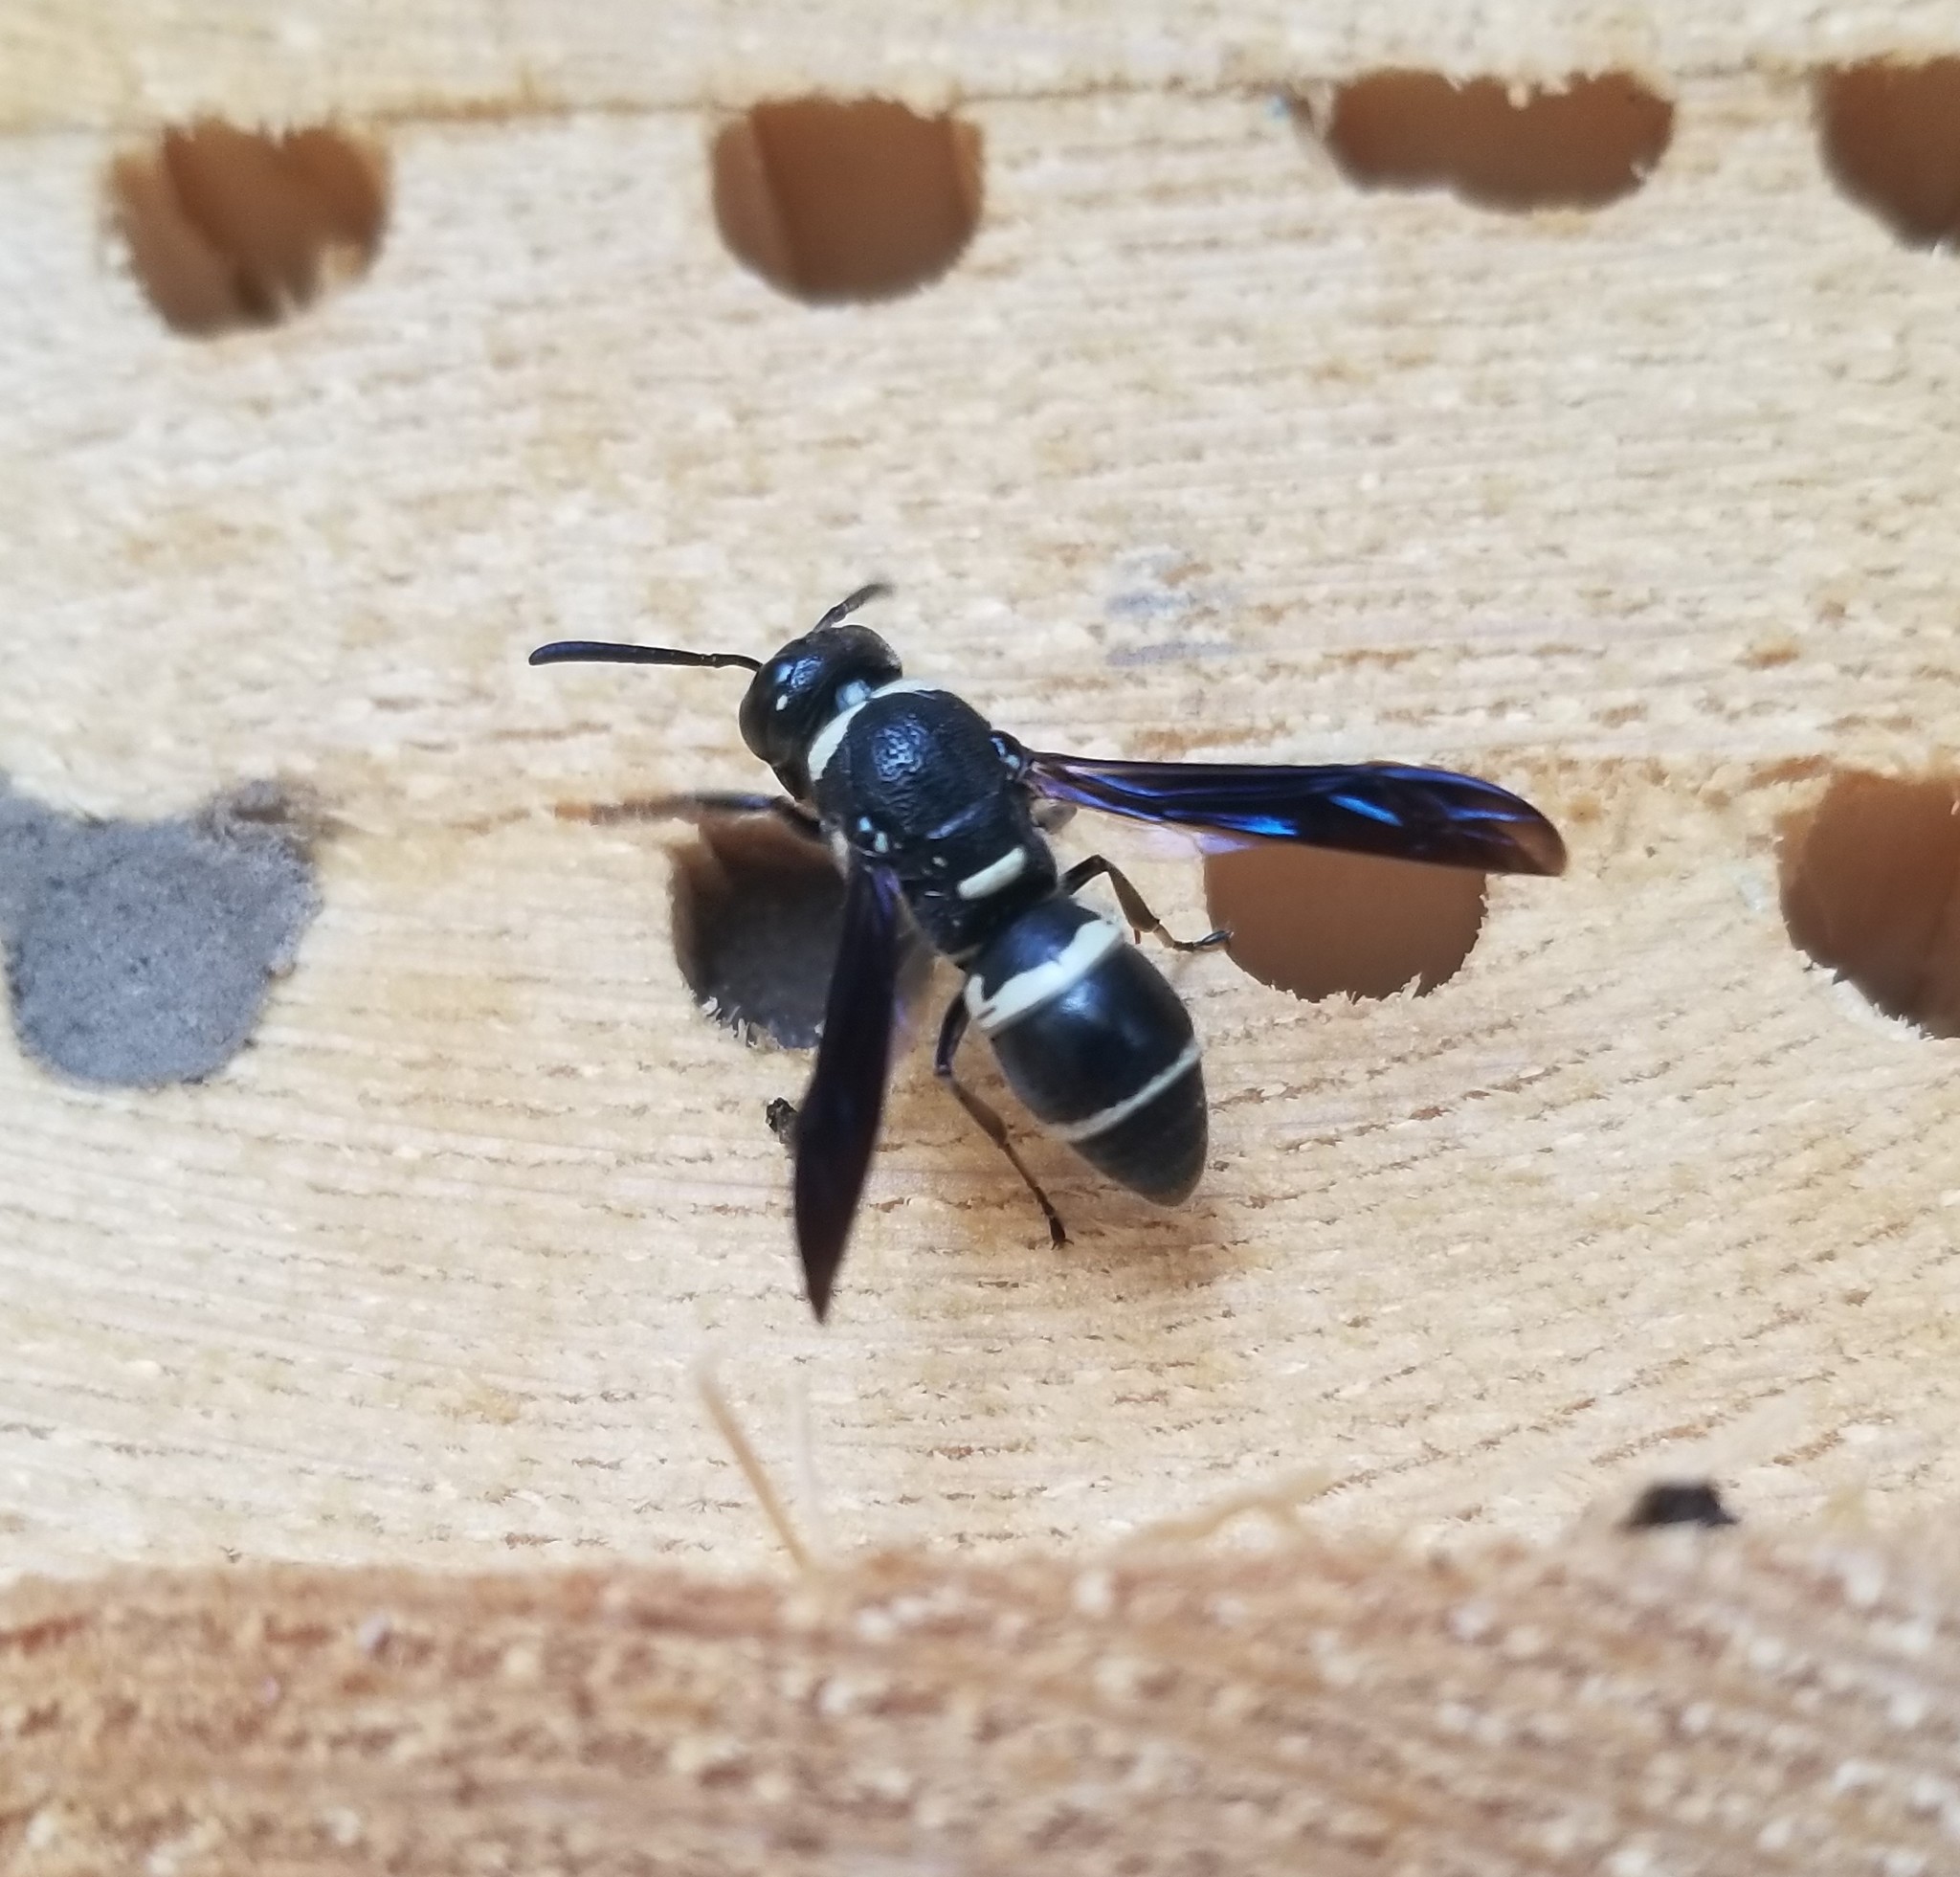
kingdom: Animalia
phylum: Arthropoda
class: Insecta
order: Hymenoptera
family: Eumenidae
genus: Euodynerus
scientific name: Euodynerus megaera
